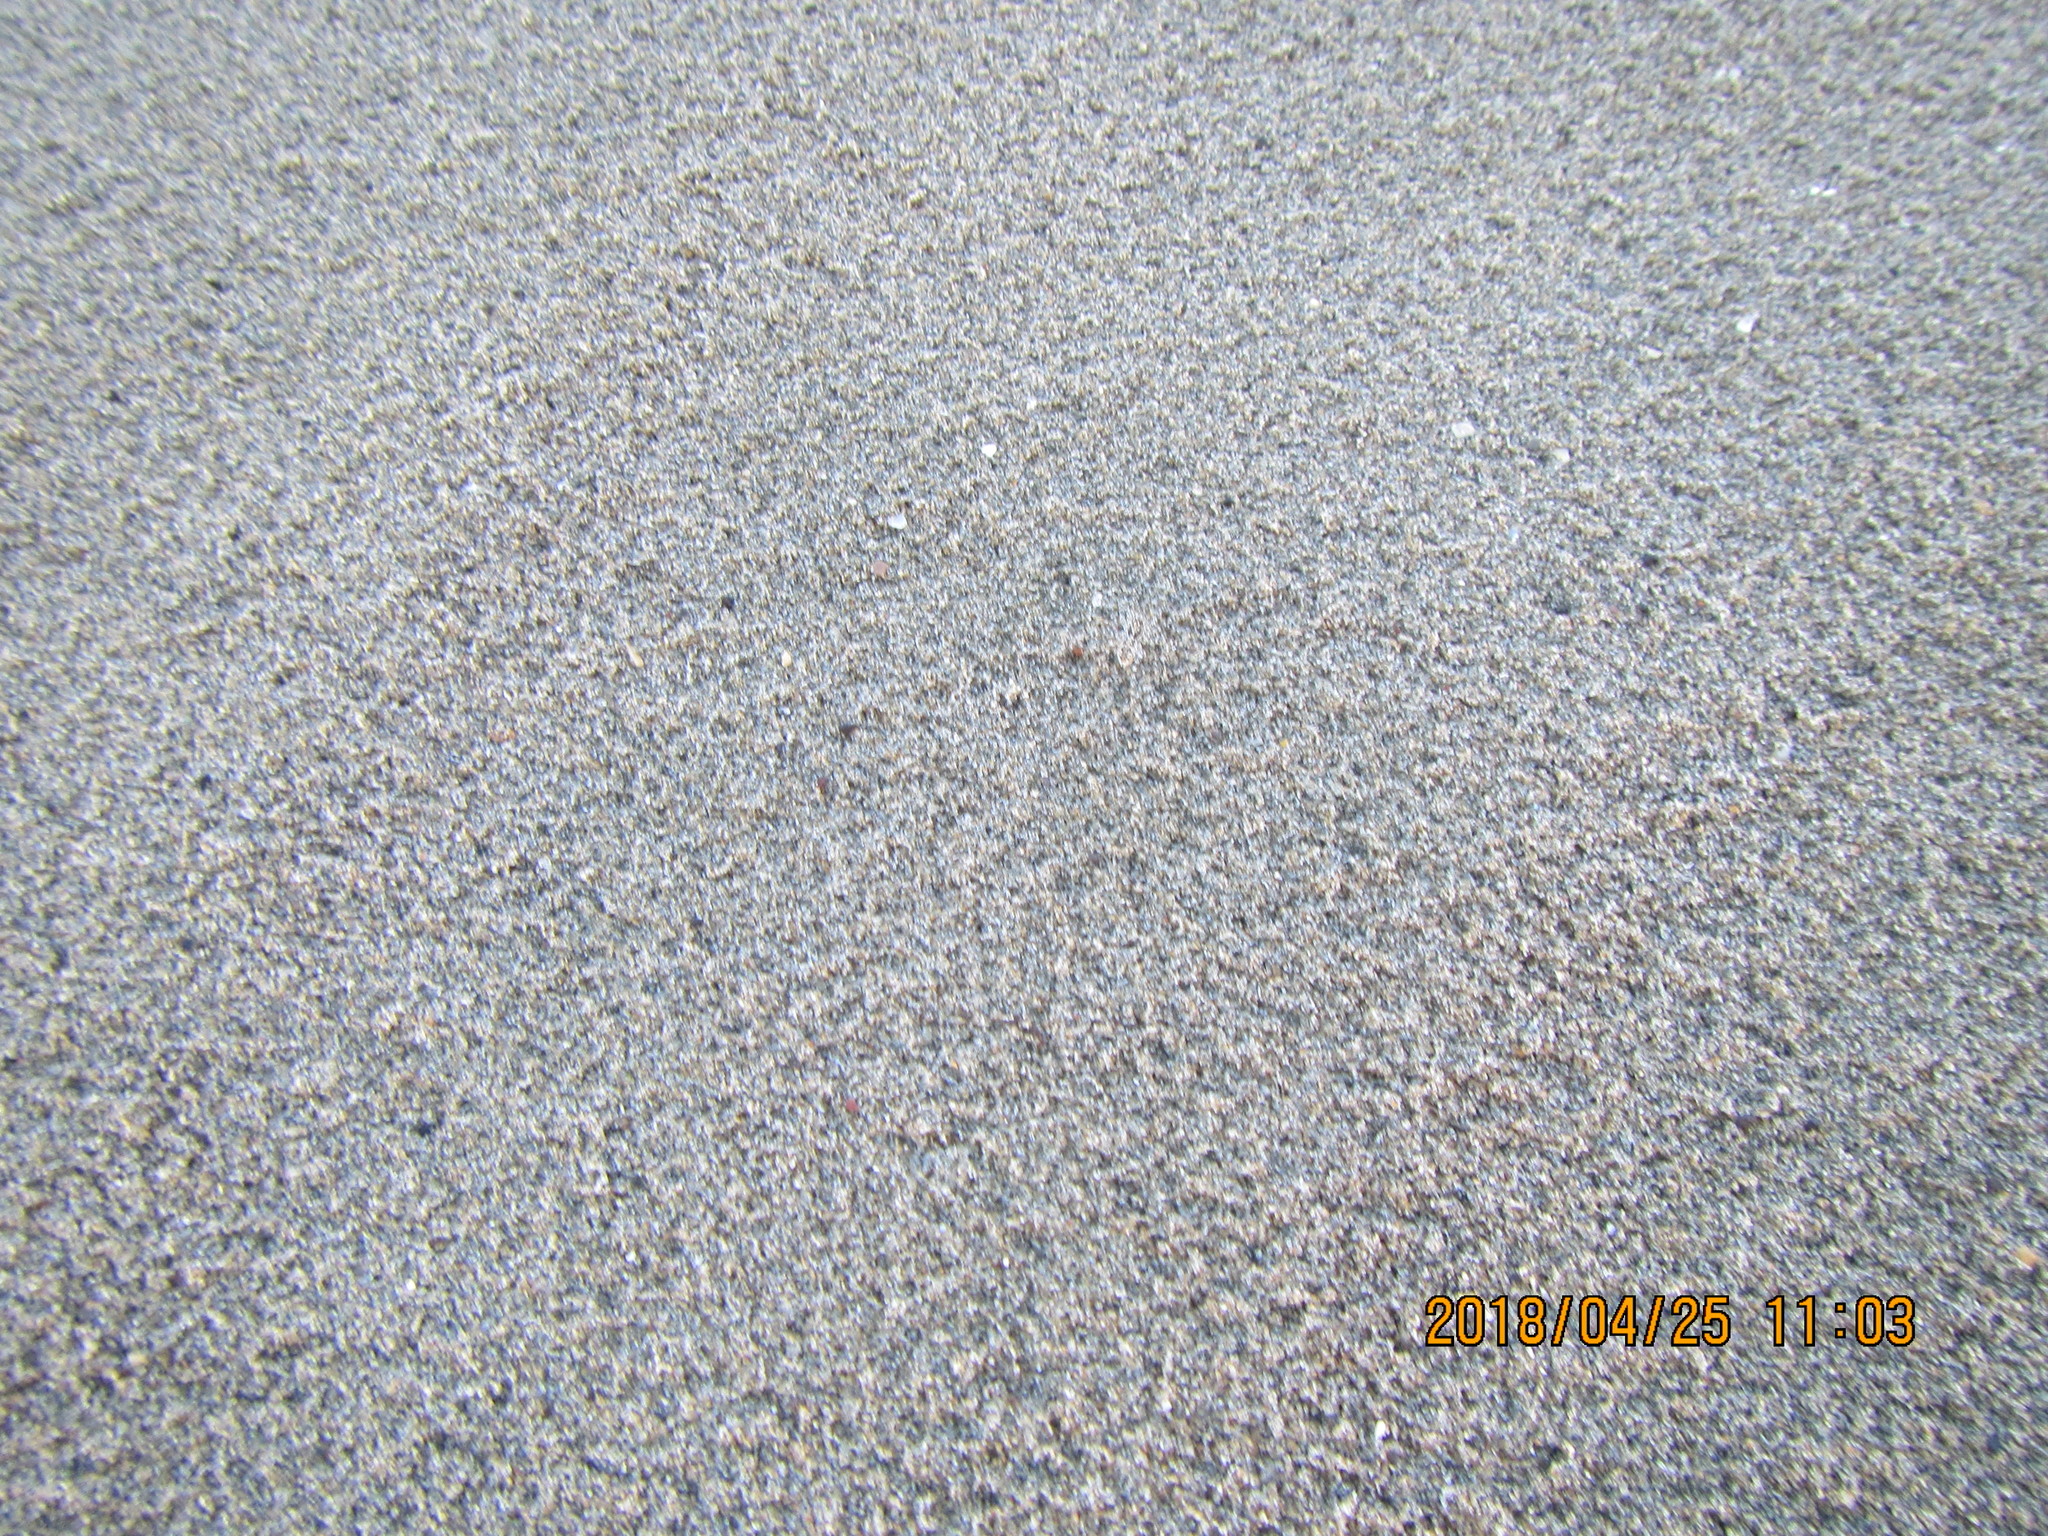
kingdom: Animalia
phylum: Arthropoda
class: Arachnida
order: Araneae
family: Lycosidae
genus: Anoteropsis
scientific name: Anoteropsis litoralis
